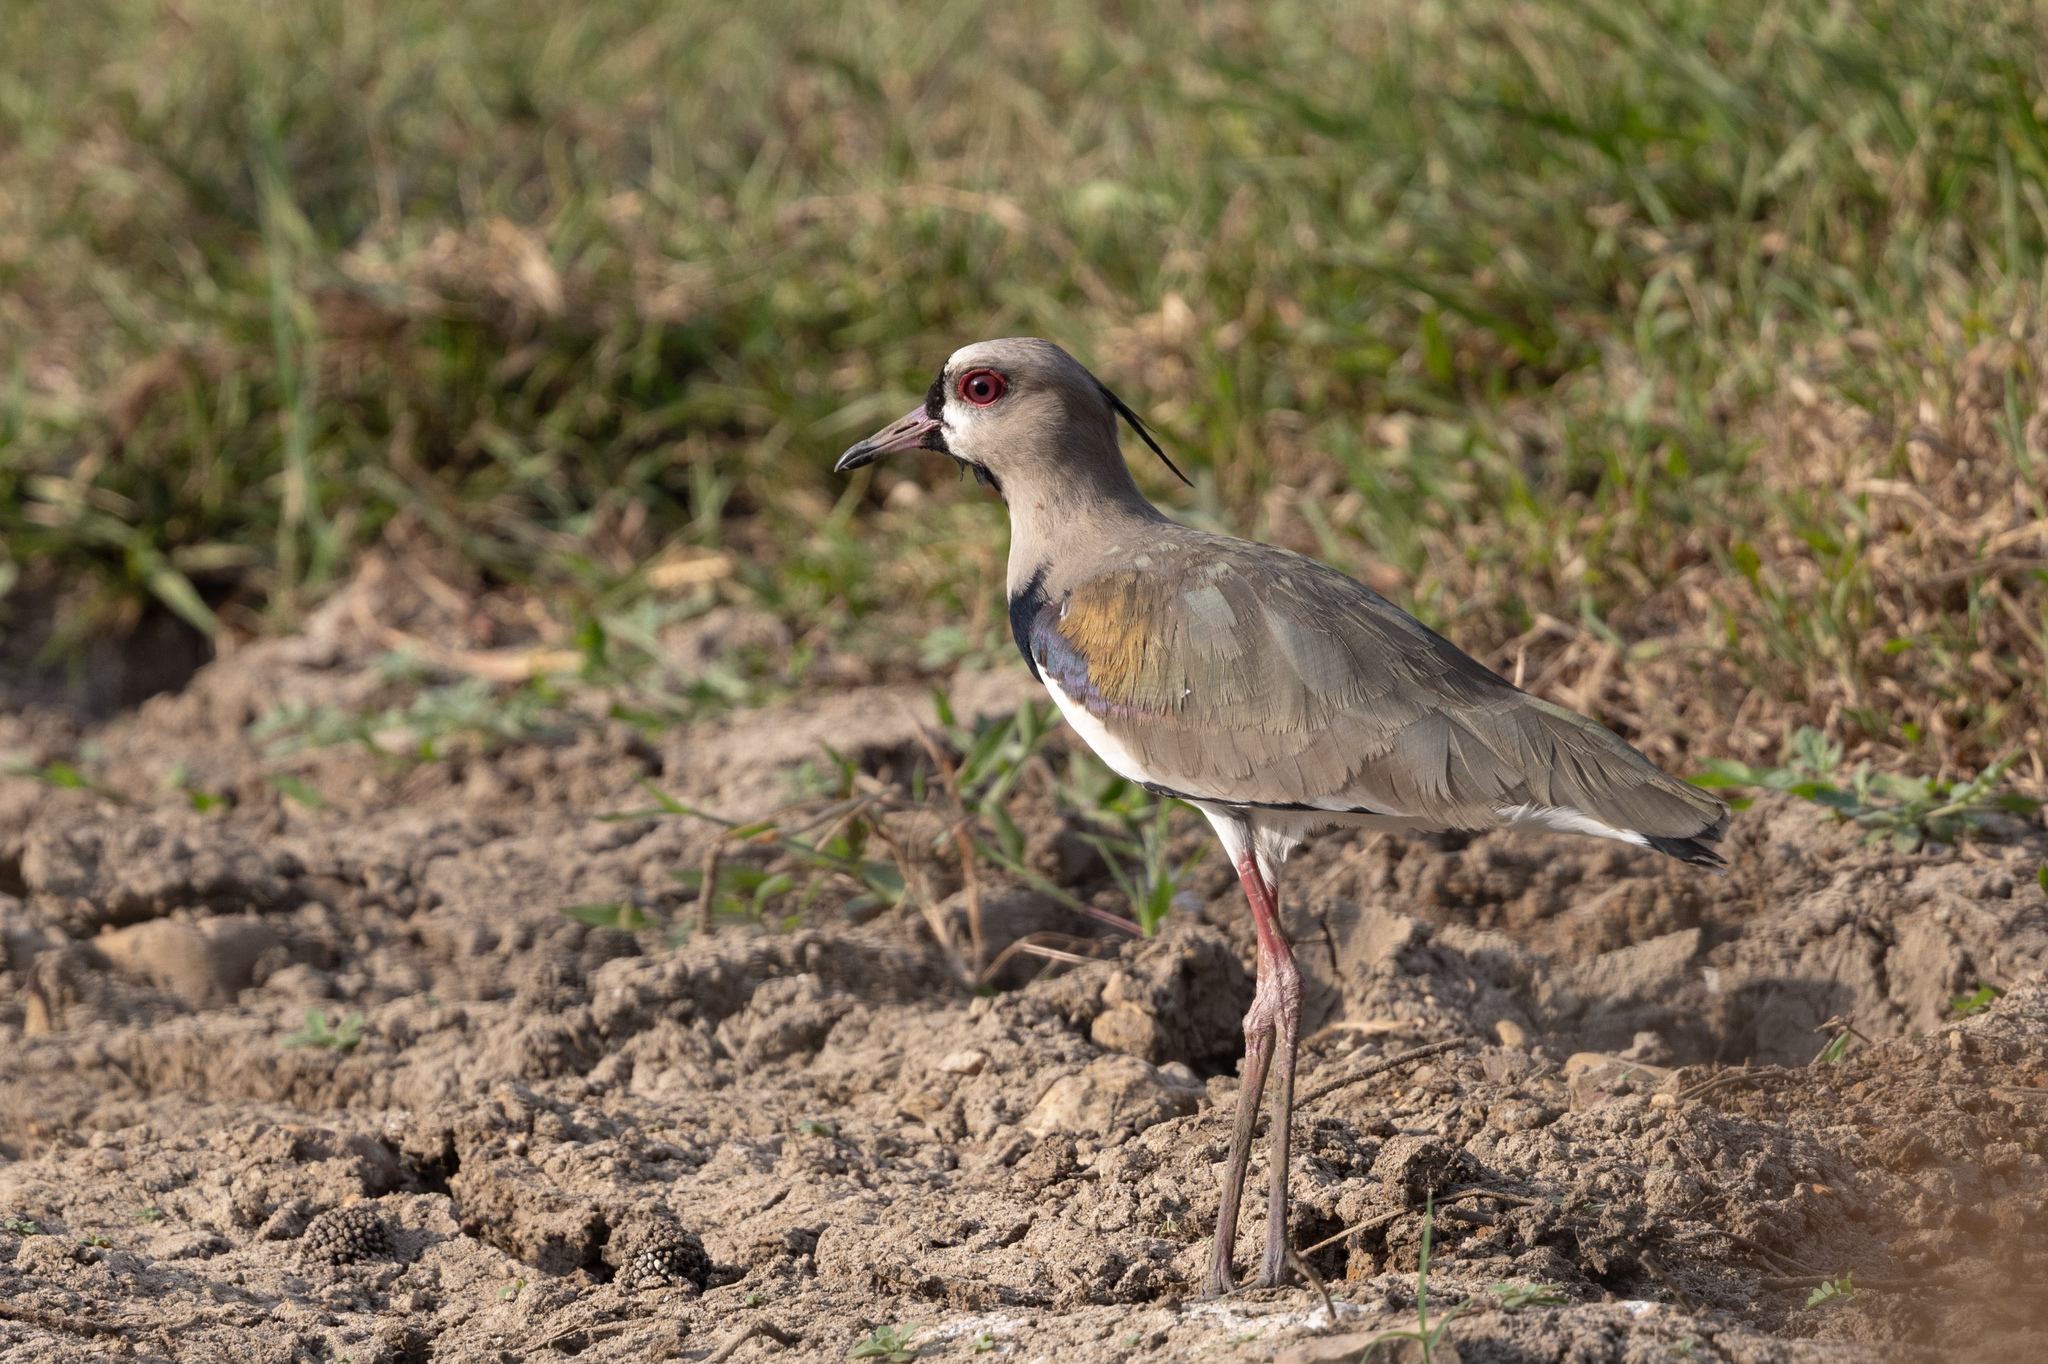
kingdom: Animalia
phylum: Chordata
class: Aves
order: Charadriiformes
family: Charadriidae
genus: Vanellus
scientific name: Vanellus chilensis
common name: Southern lapwing
